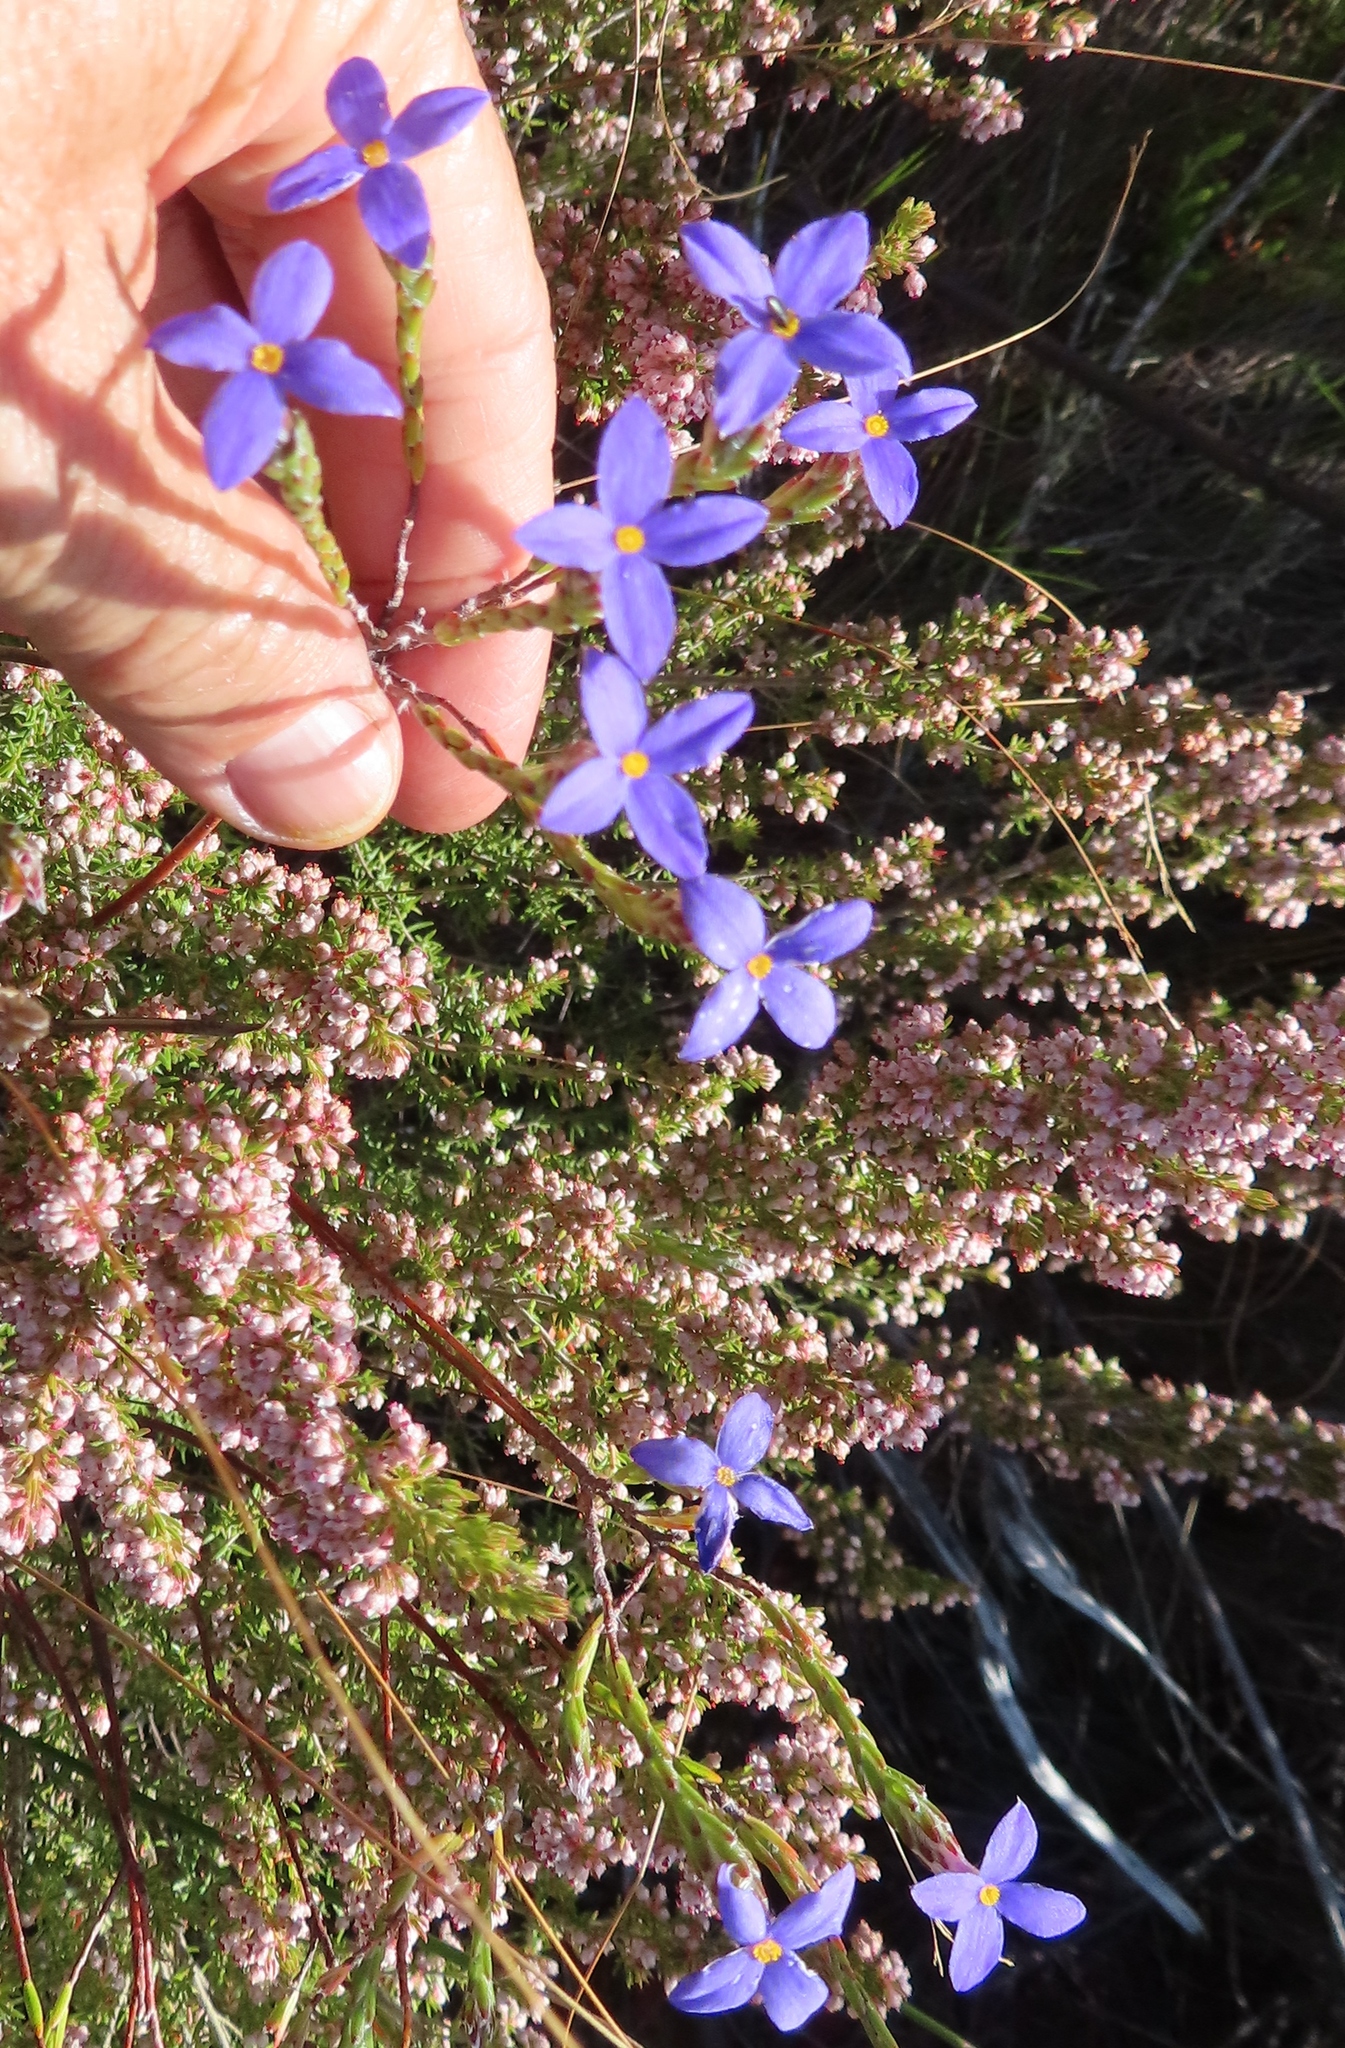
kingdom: Plantae
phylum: Tracheophyta
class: Magnoliopsida
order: Malvales
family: Thymelaeaceae
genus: Gnidia
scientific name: Gnidia penicillata
